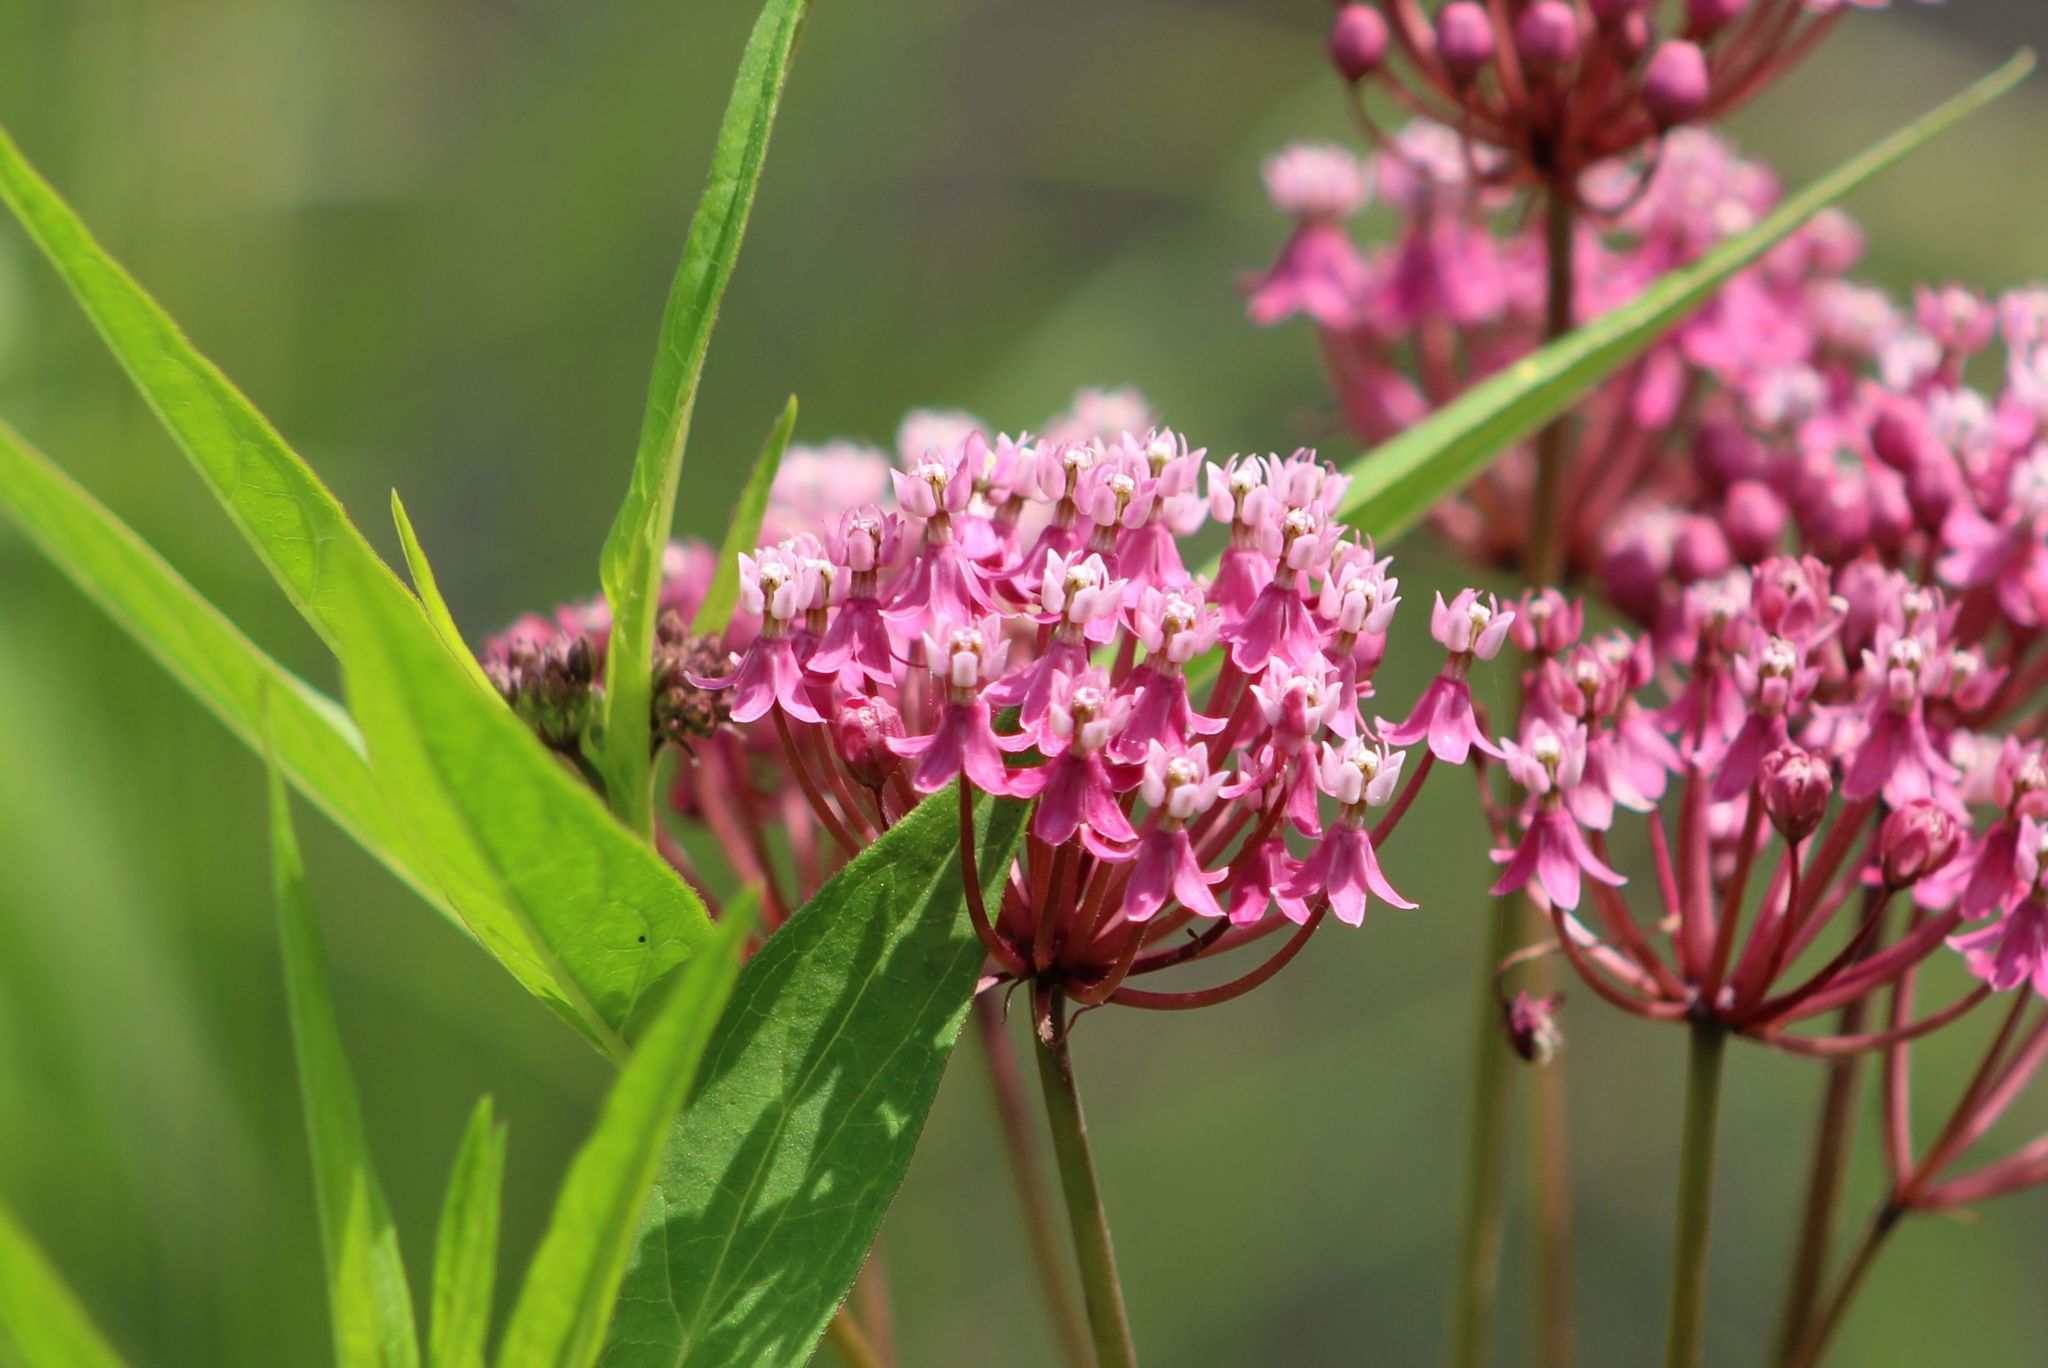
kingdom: Plantae
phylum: Tracheophyta
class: Magnoliopsida
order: Gentianales
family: Apocynaceae
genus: Asclepias
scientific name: Asclepias incarnata
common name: Swamp milkweed
